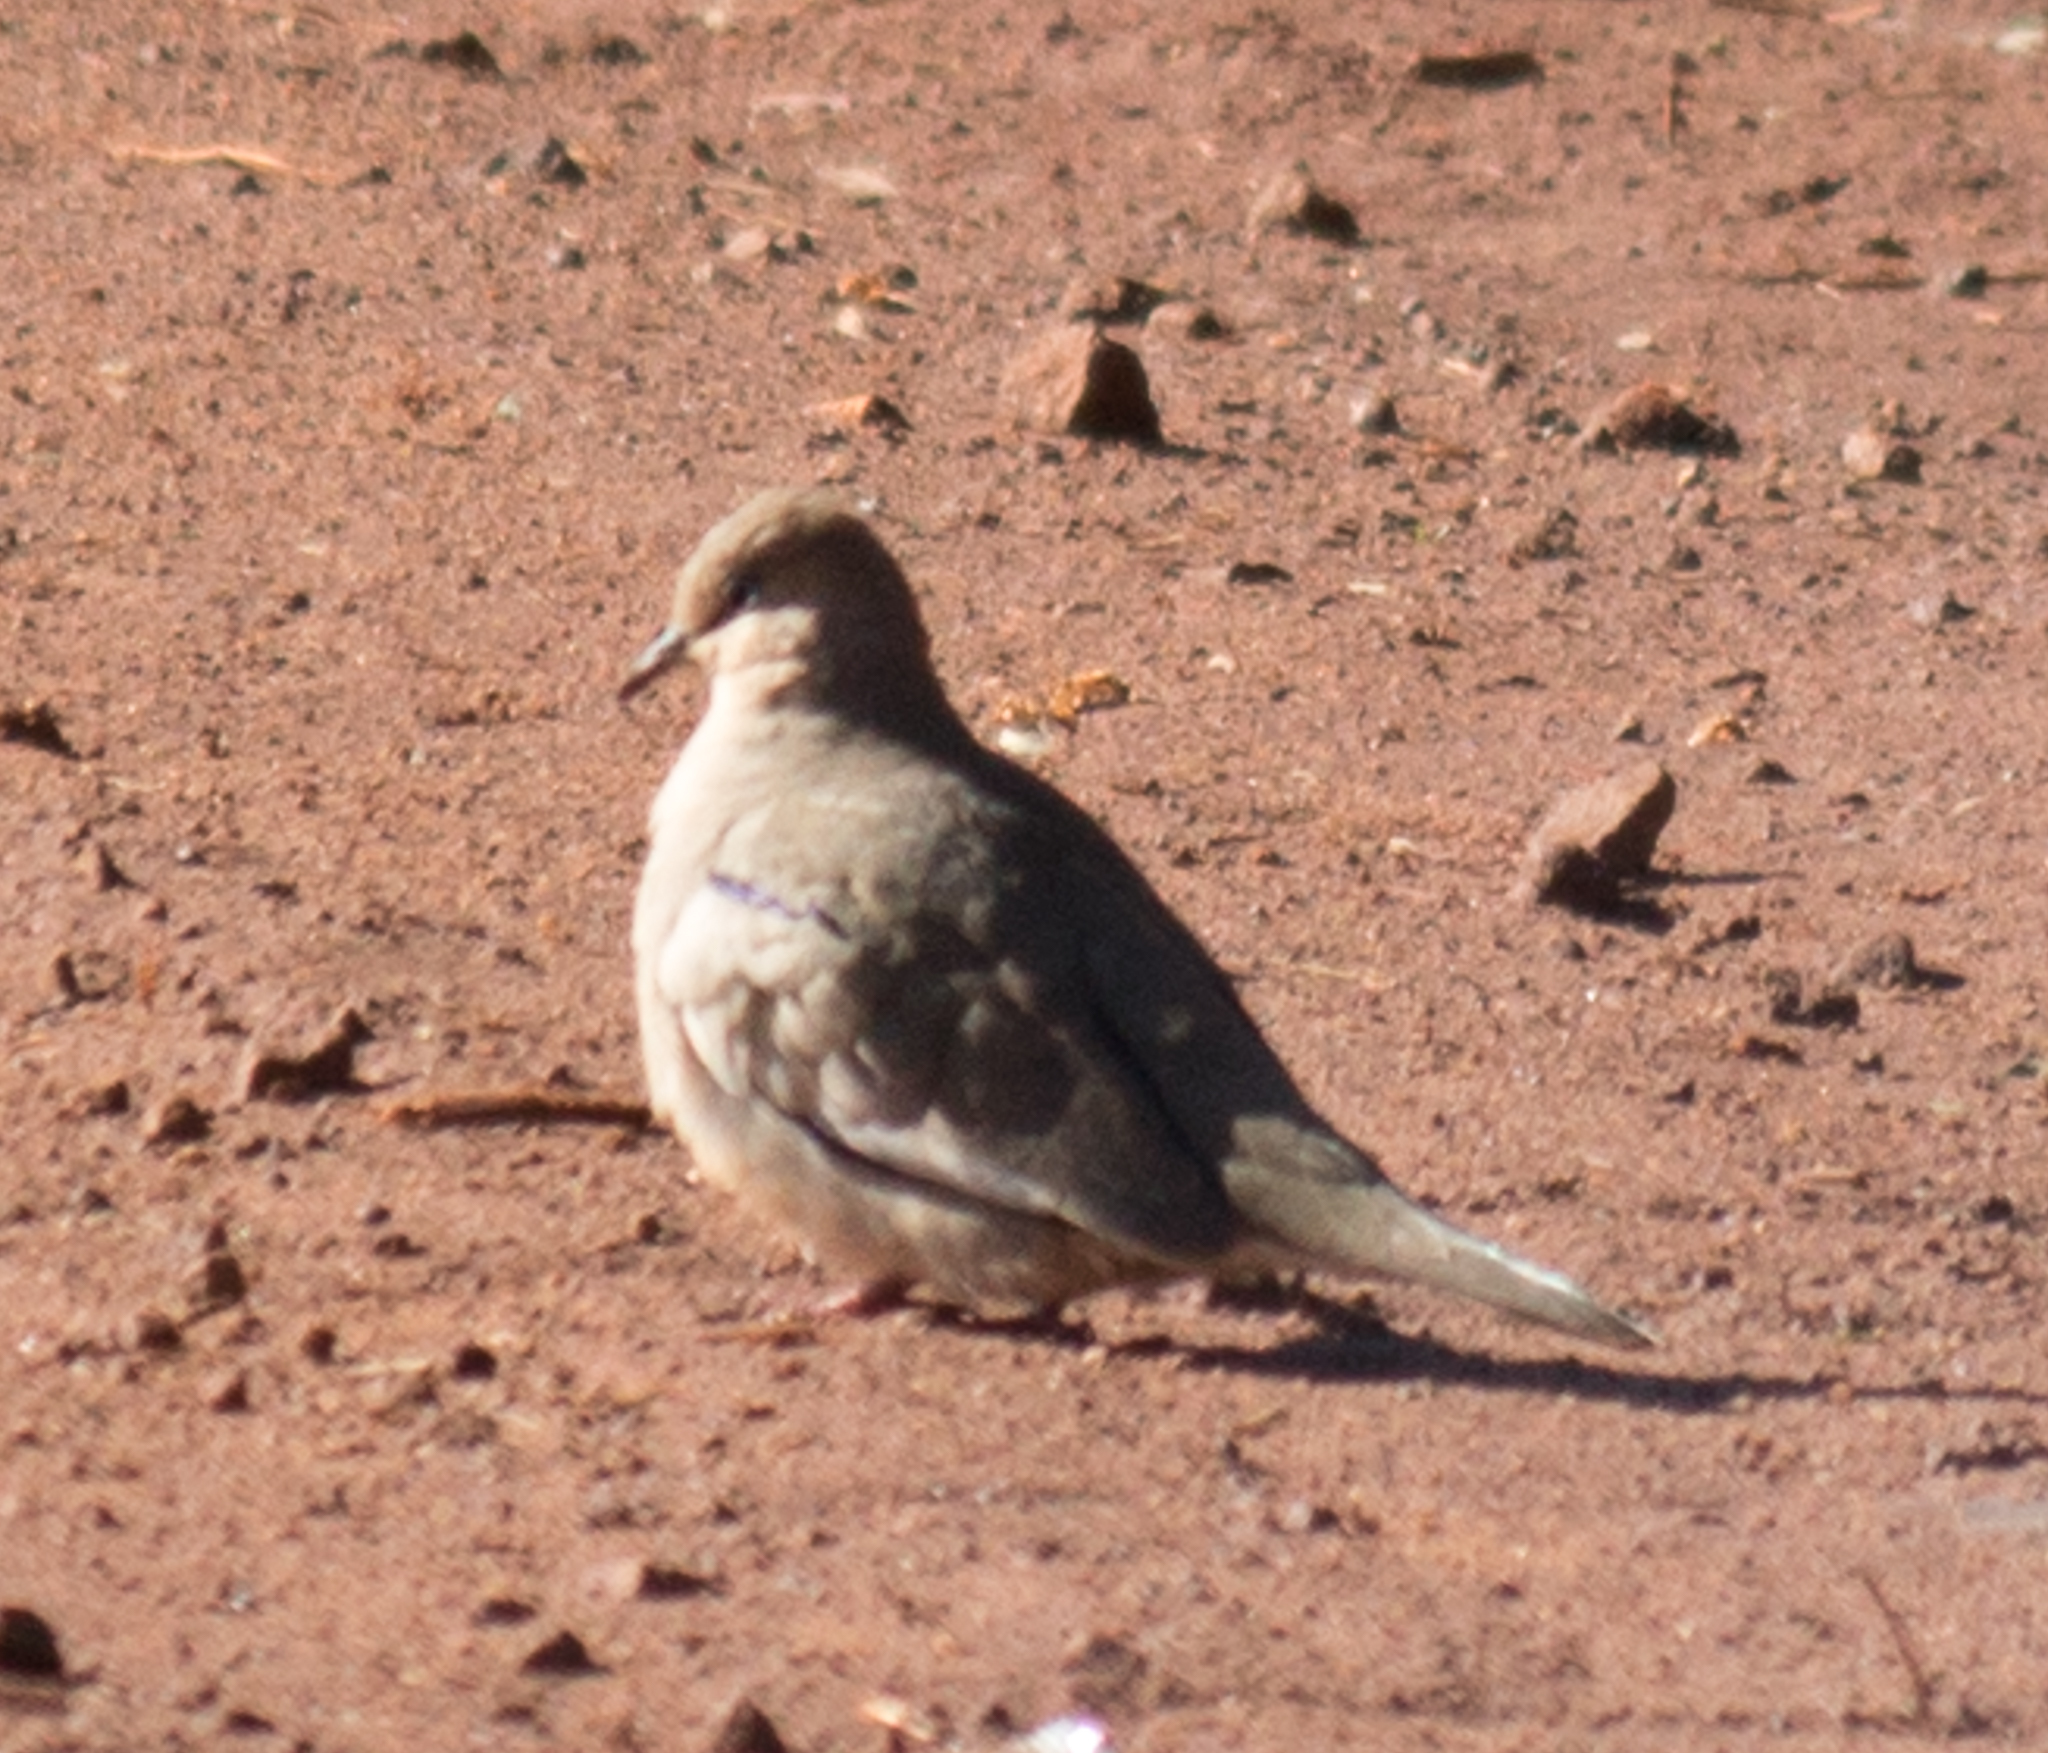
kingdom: Animalia
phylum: Chordata
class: Aves
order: Columbiformes
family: Columbidae
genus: Columbina
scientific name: Columbina picui
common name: Picui ground dove
